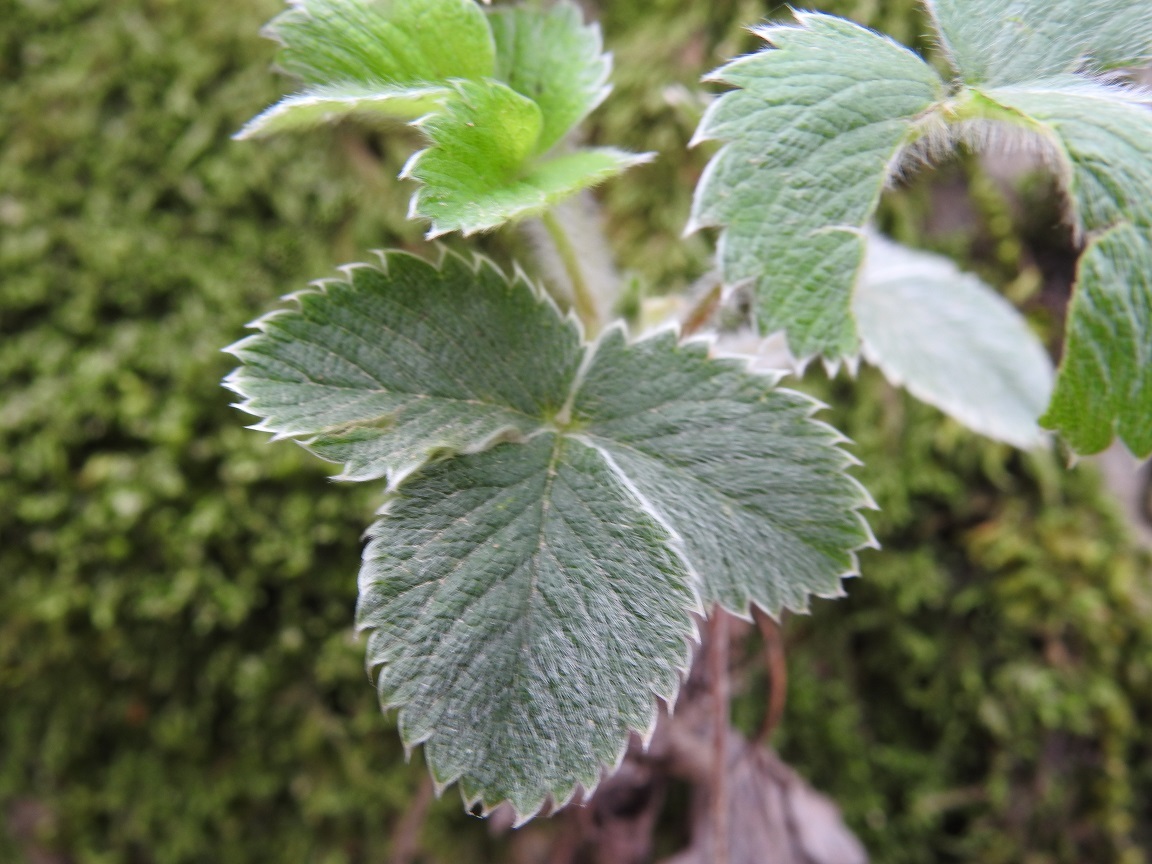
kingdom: Plantae
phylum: Tracheophyta
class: Magnoliopsida
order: Rosales
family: Rosaceae
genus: Potentilla
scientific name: Potentilla micrantha
